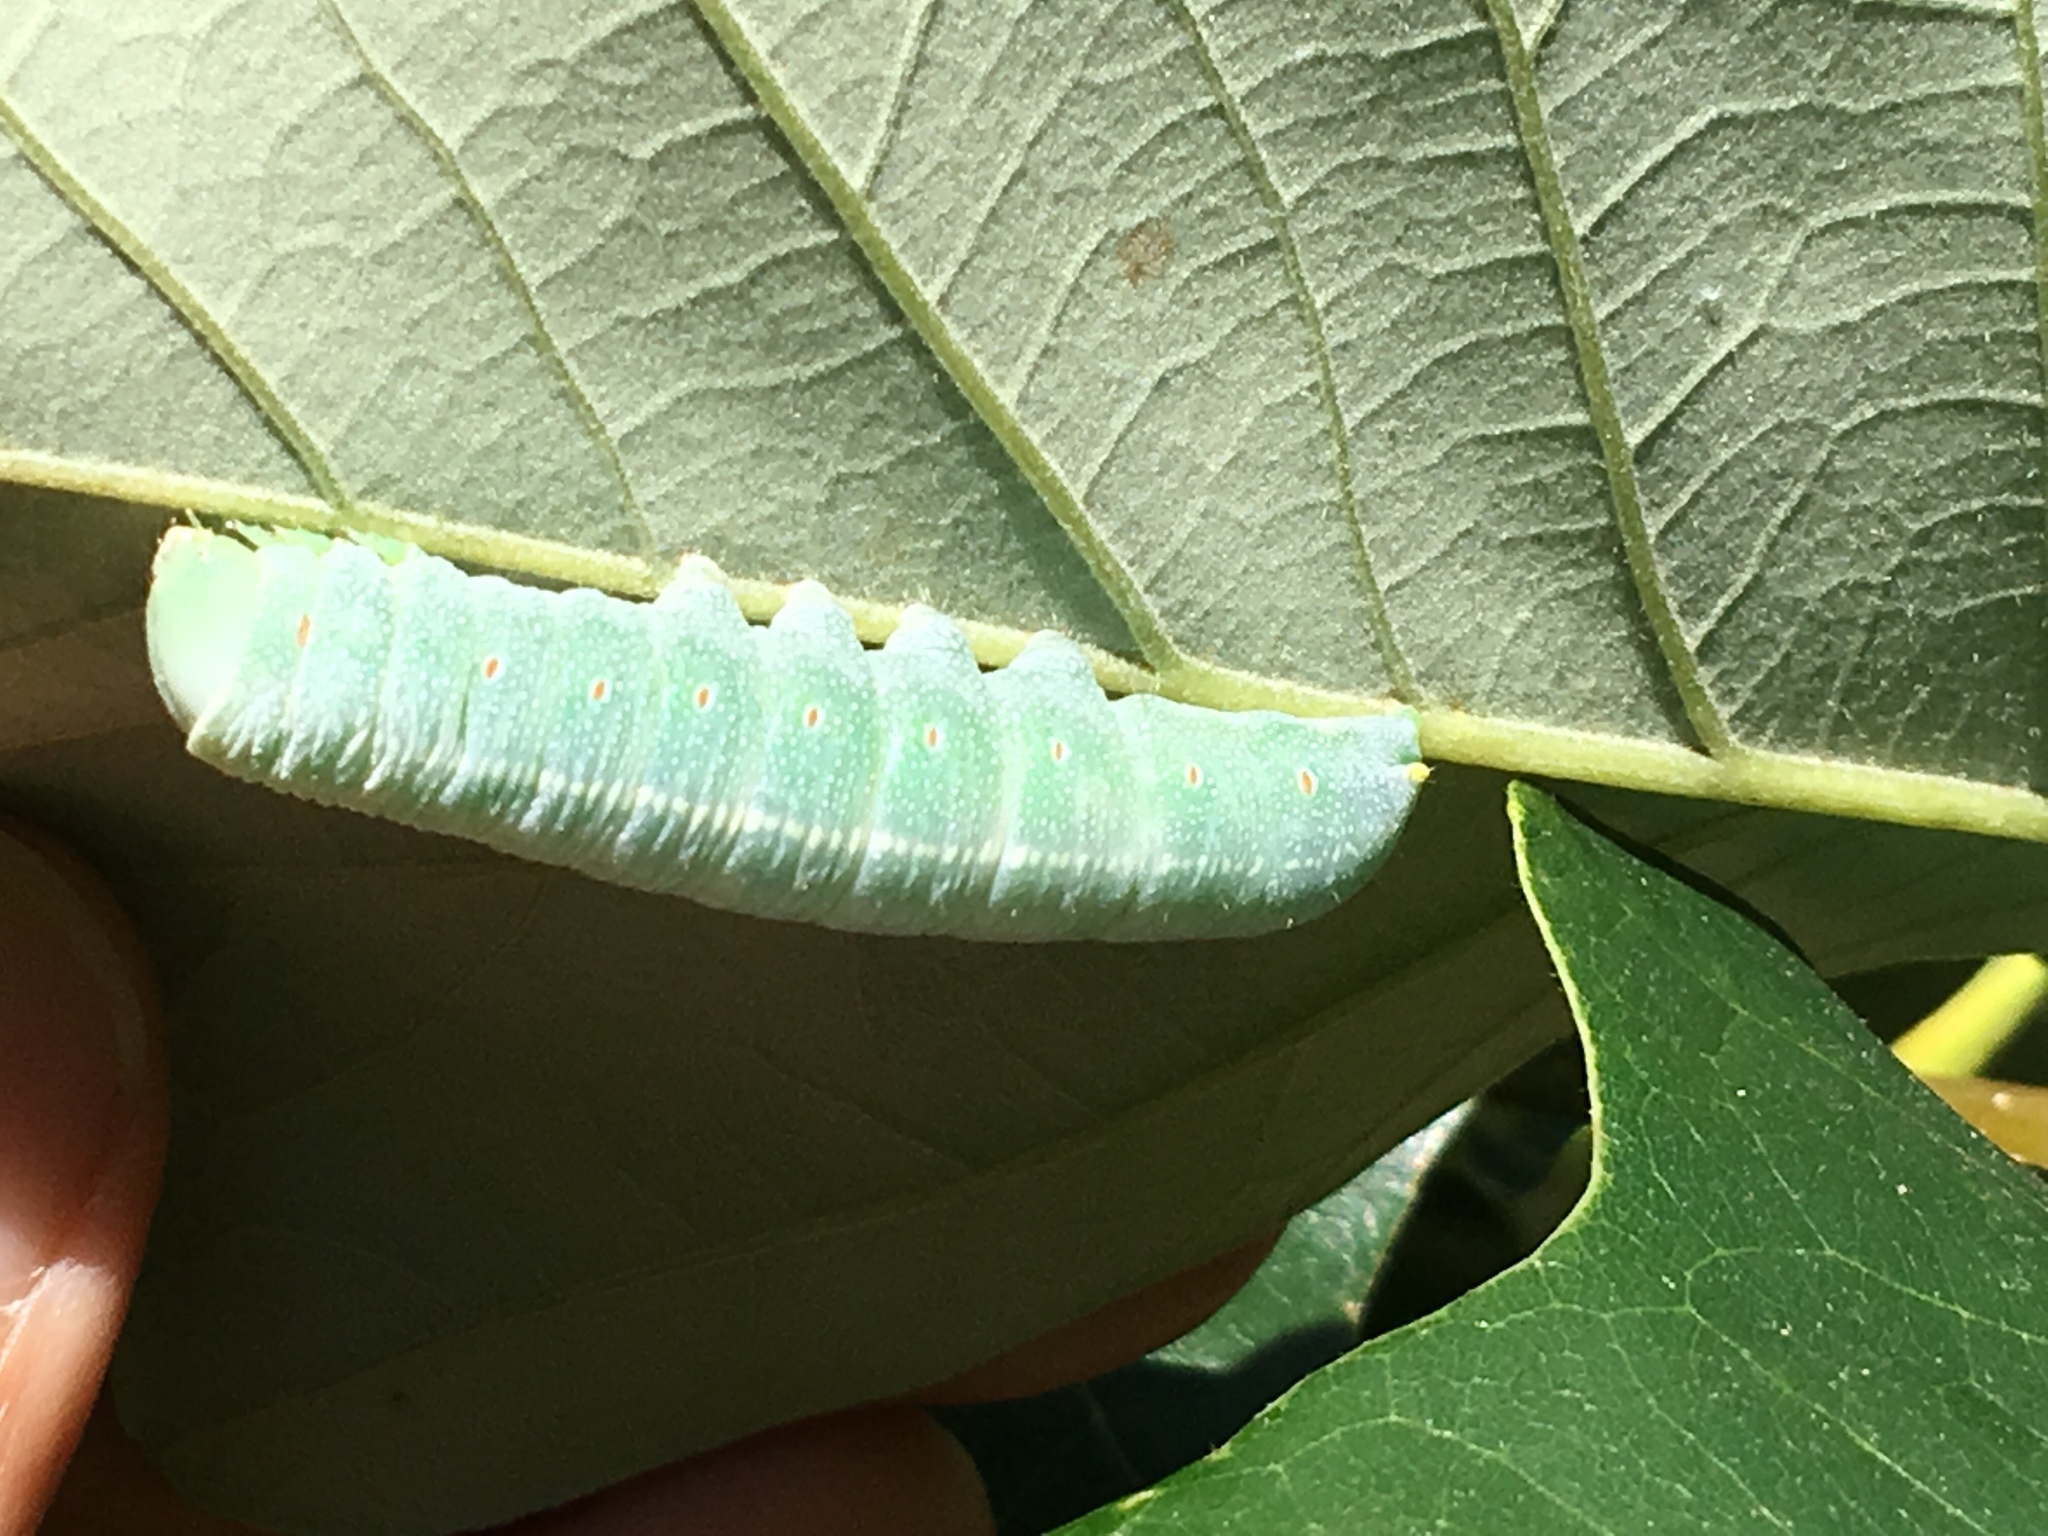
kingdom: Animalia
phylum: Arthropoda
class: Insecta
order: Lepidoptera
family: Notodontidae
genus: Nadata
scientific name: Nadata gibbosa
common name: White-dotted prominent
